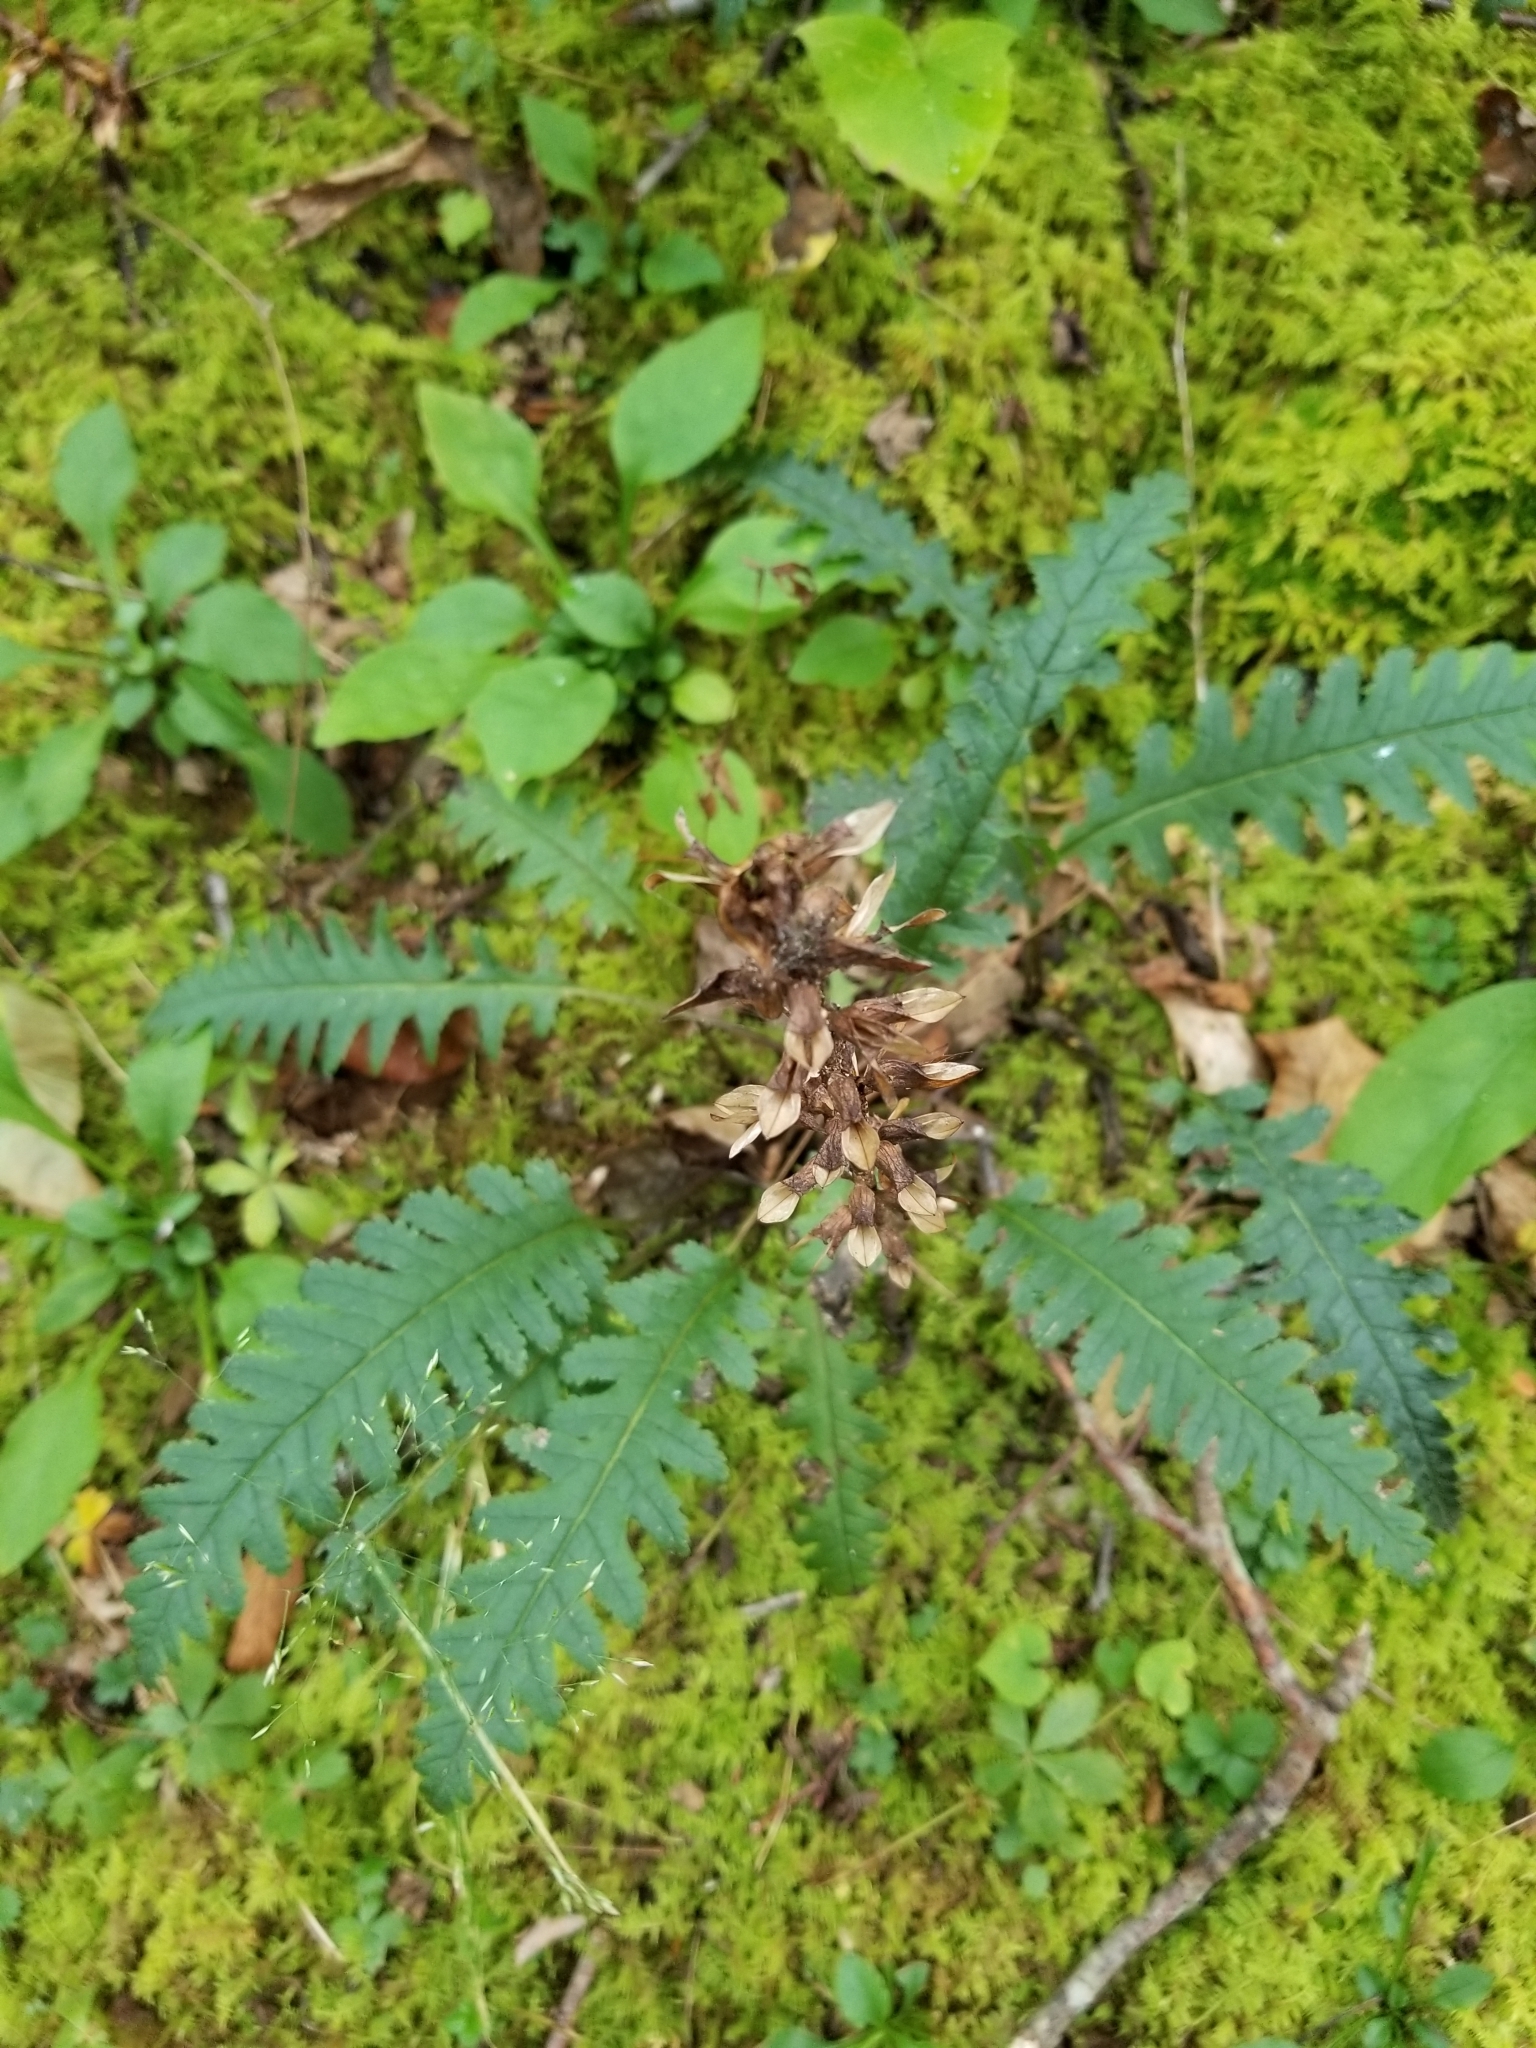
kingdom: Plantae
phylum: Tracheophyta
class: Magnoliopsida
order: Lamiales
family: Orobanchaceae
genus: Pedicularis
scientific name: Pedicularis canadensis
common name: Early lousewort
